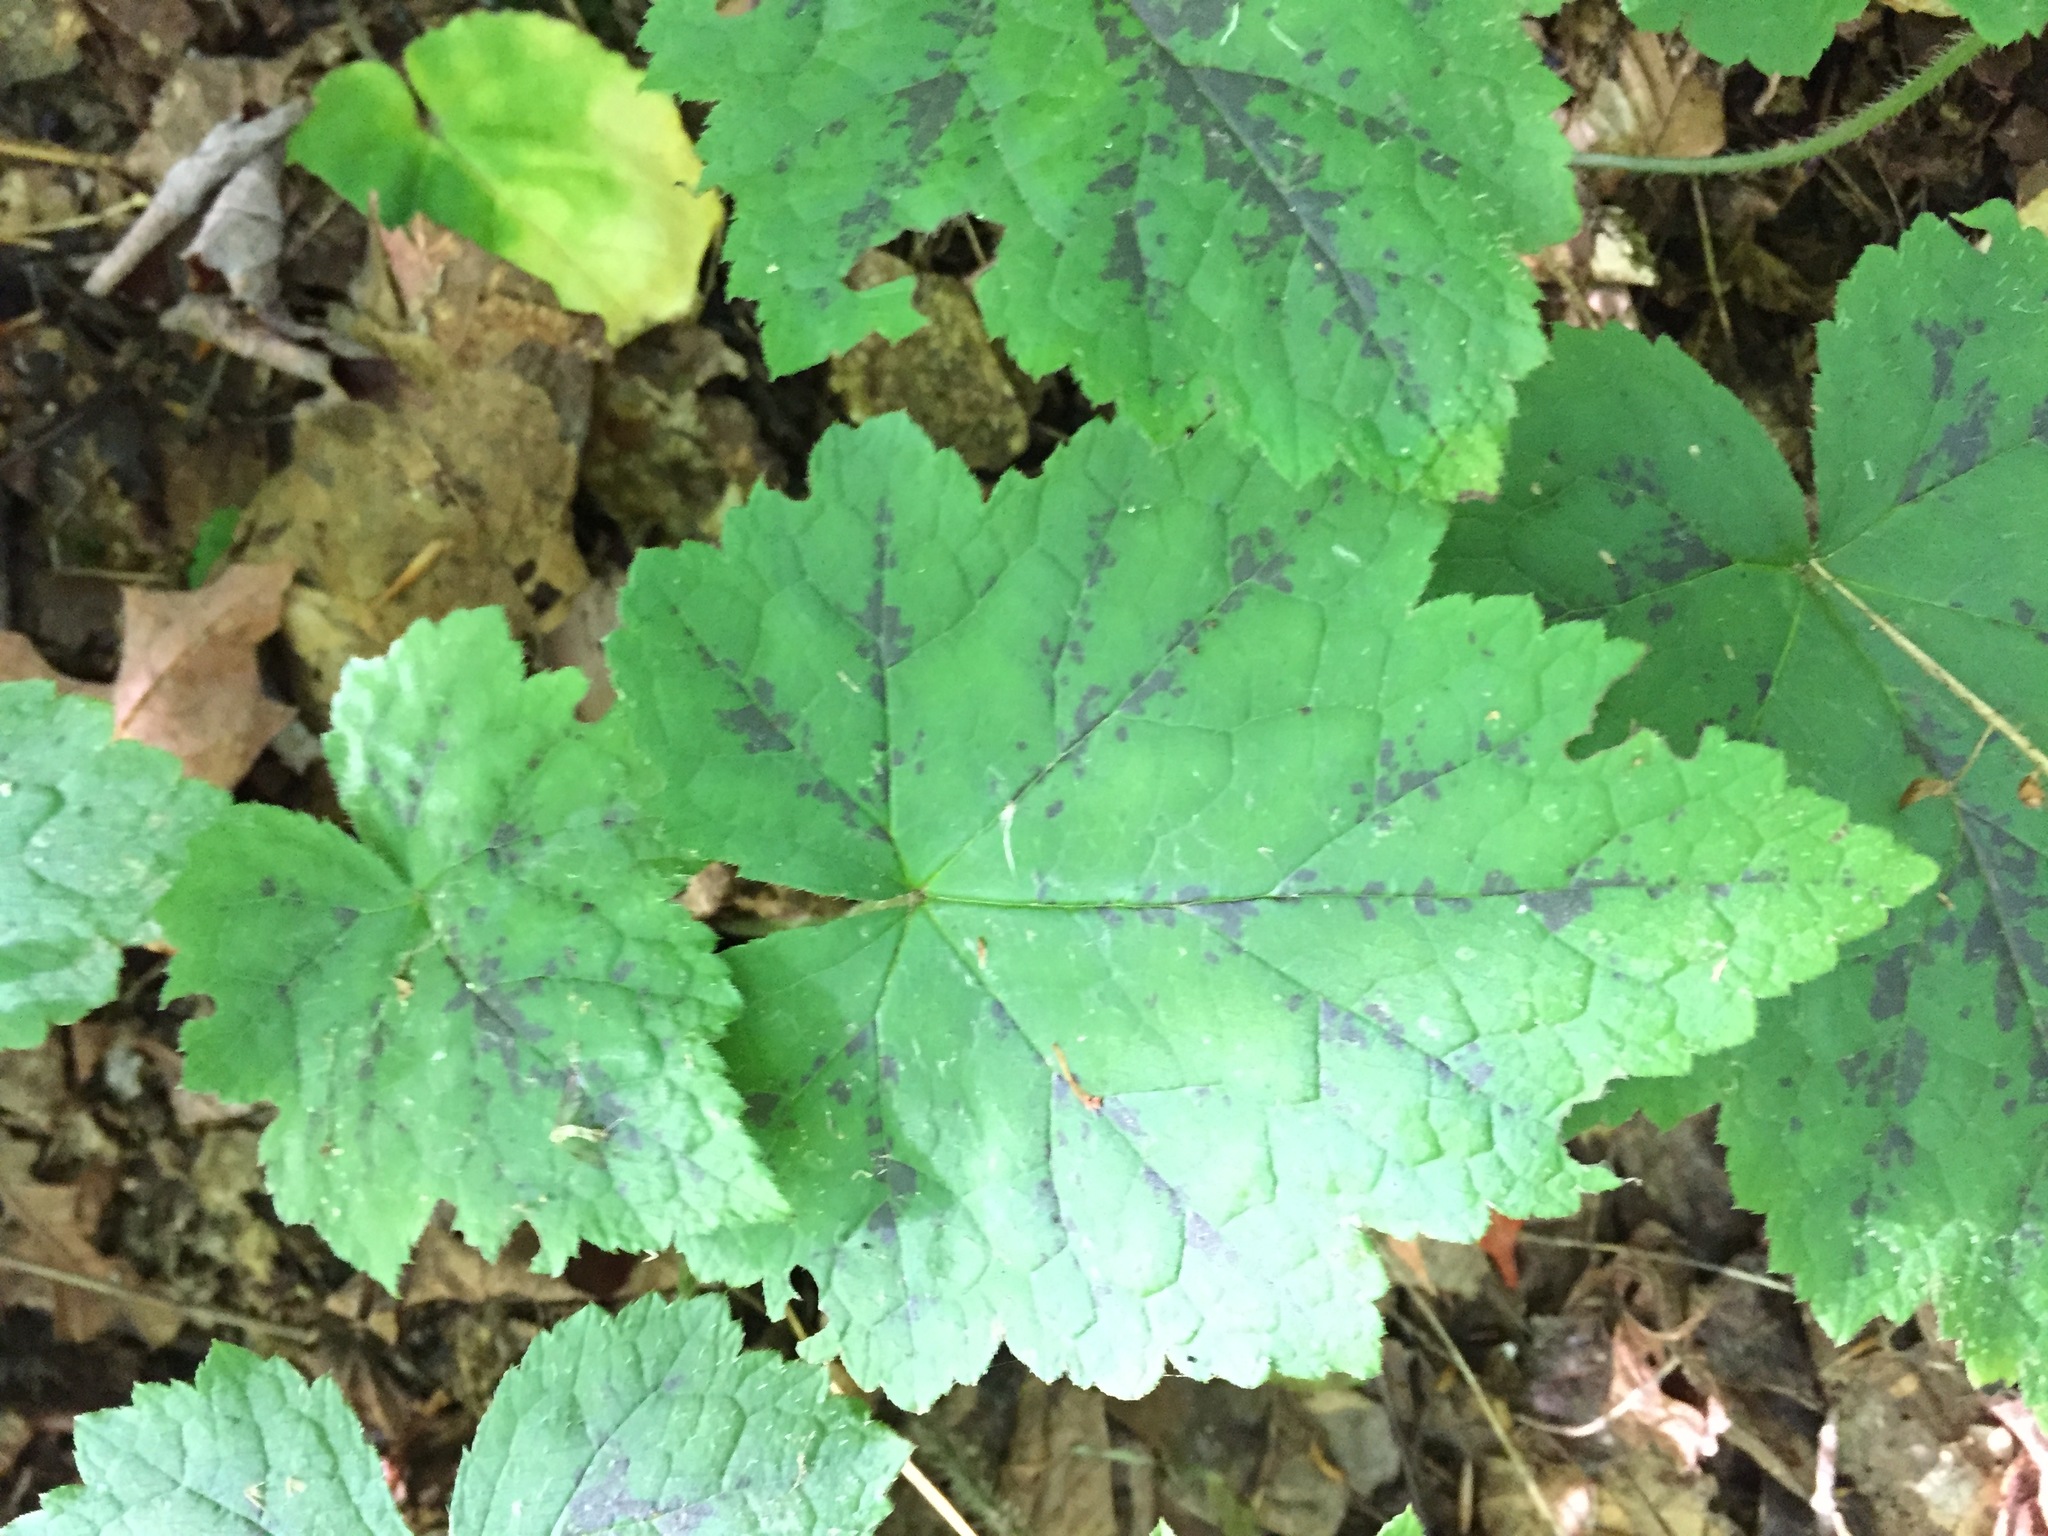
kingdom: Plantae
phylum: Tracheophyta
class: Magnoliopsida
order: Saxifragales
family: Saxifragaceae
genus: Tiarella
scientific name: Tiarella stolonifera
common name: Stoloniferous foamflower
